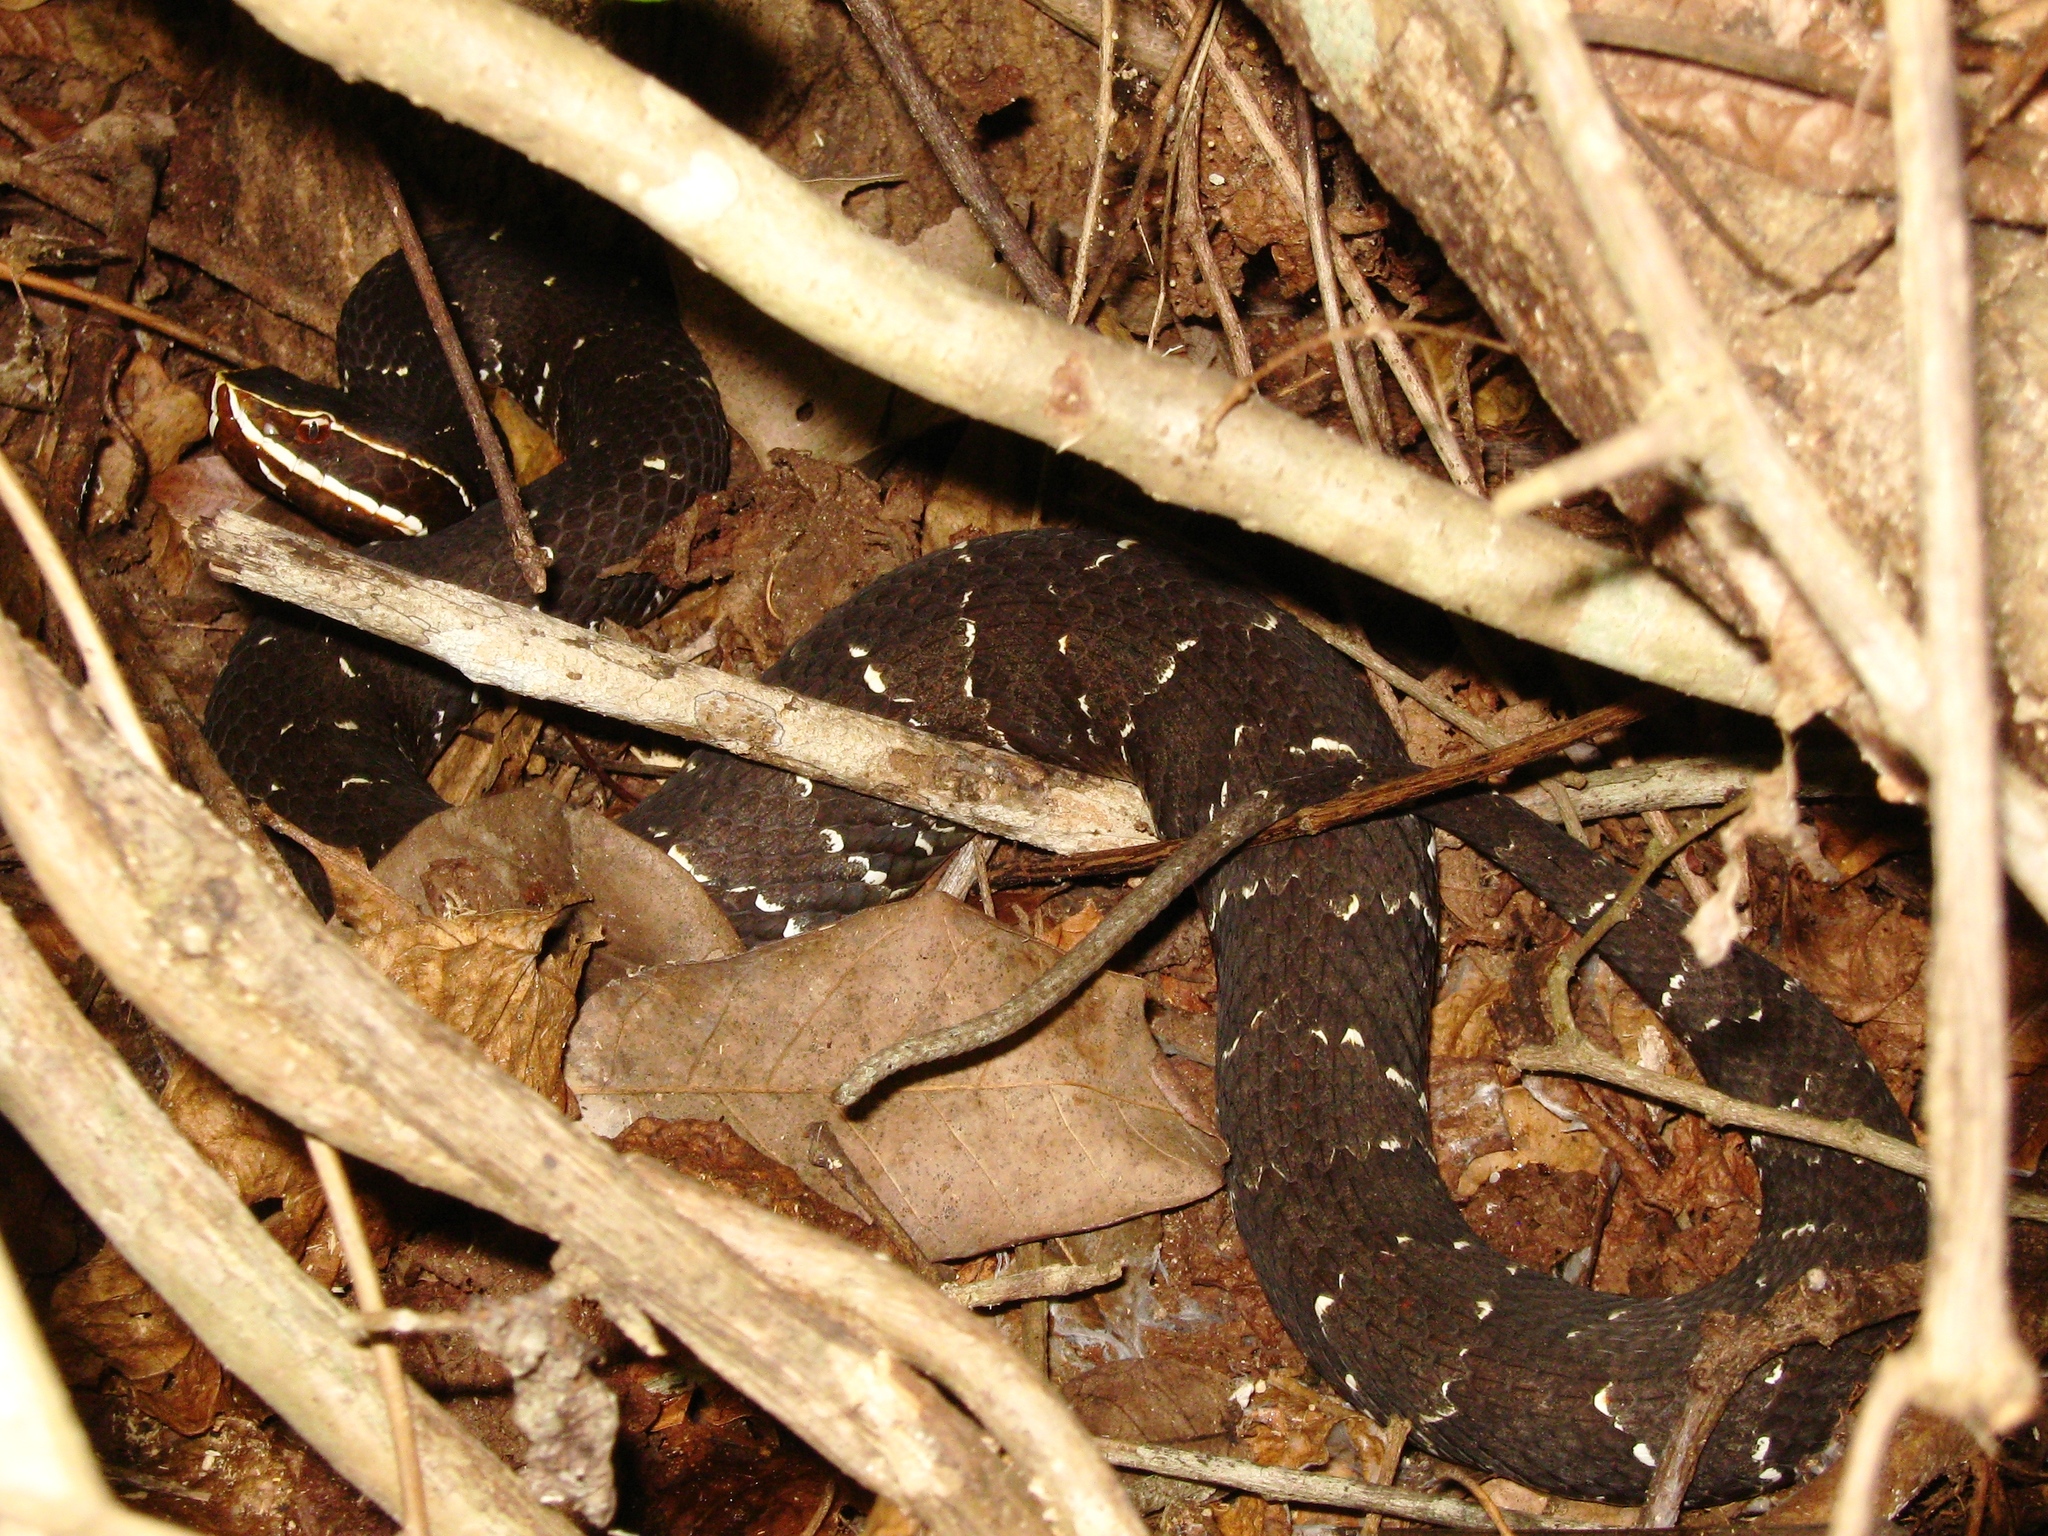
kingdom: Animalia
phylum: Chordata
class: Squamata
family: Viperidae
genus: Agkistrodon
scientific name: Agkistrodon bilineatus
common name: Mexican moccasin
